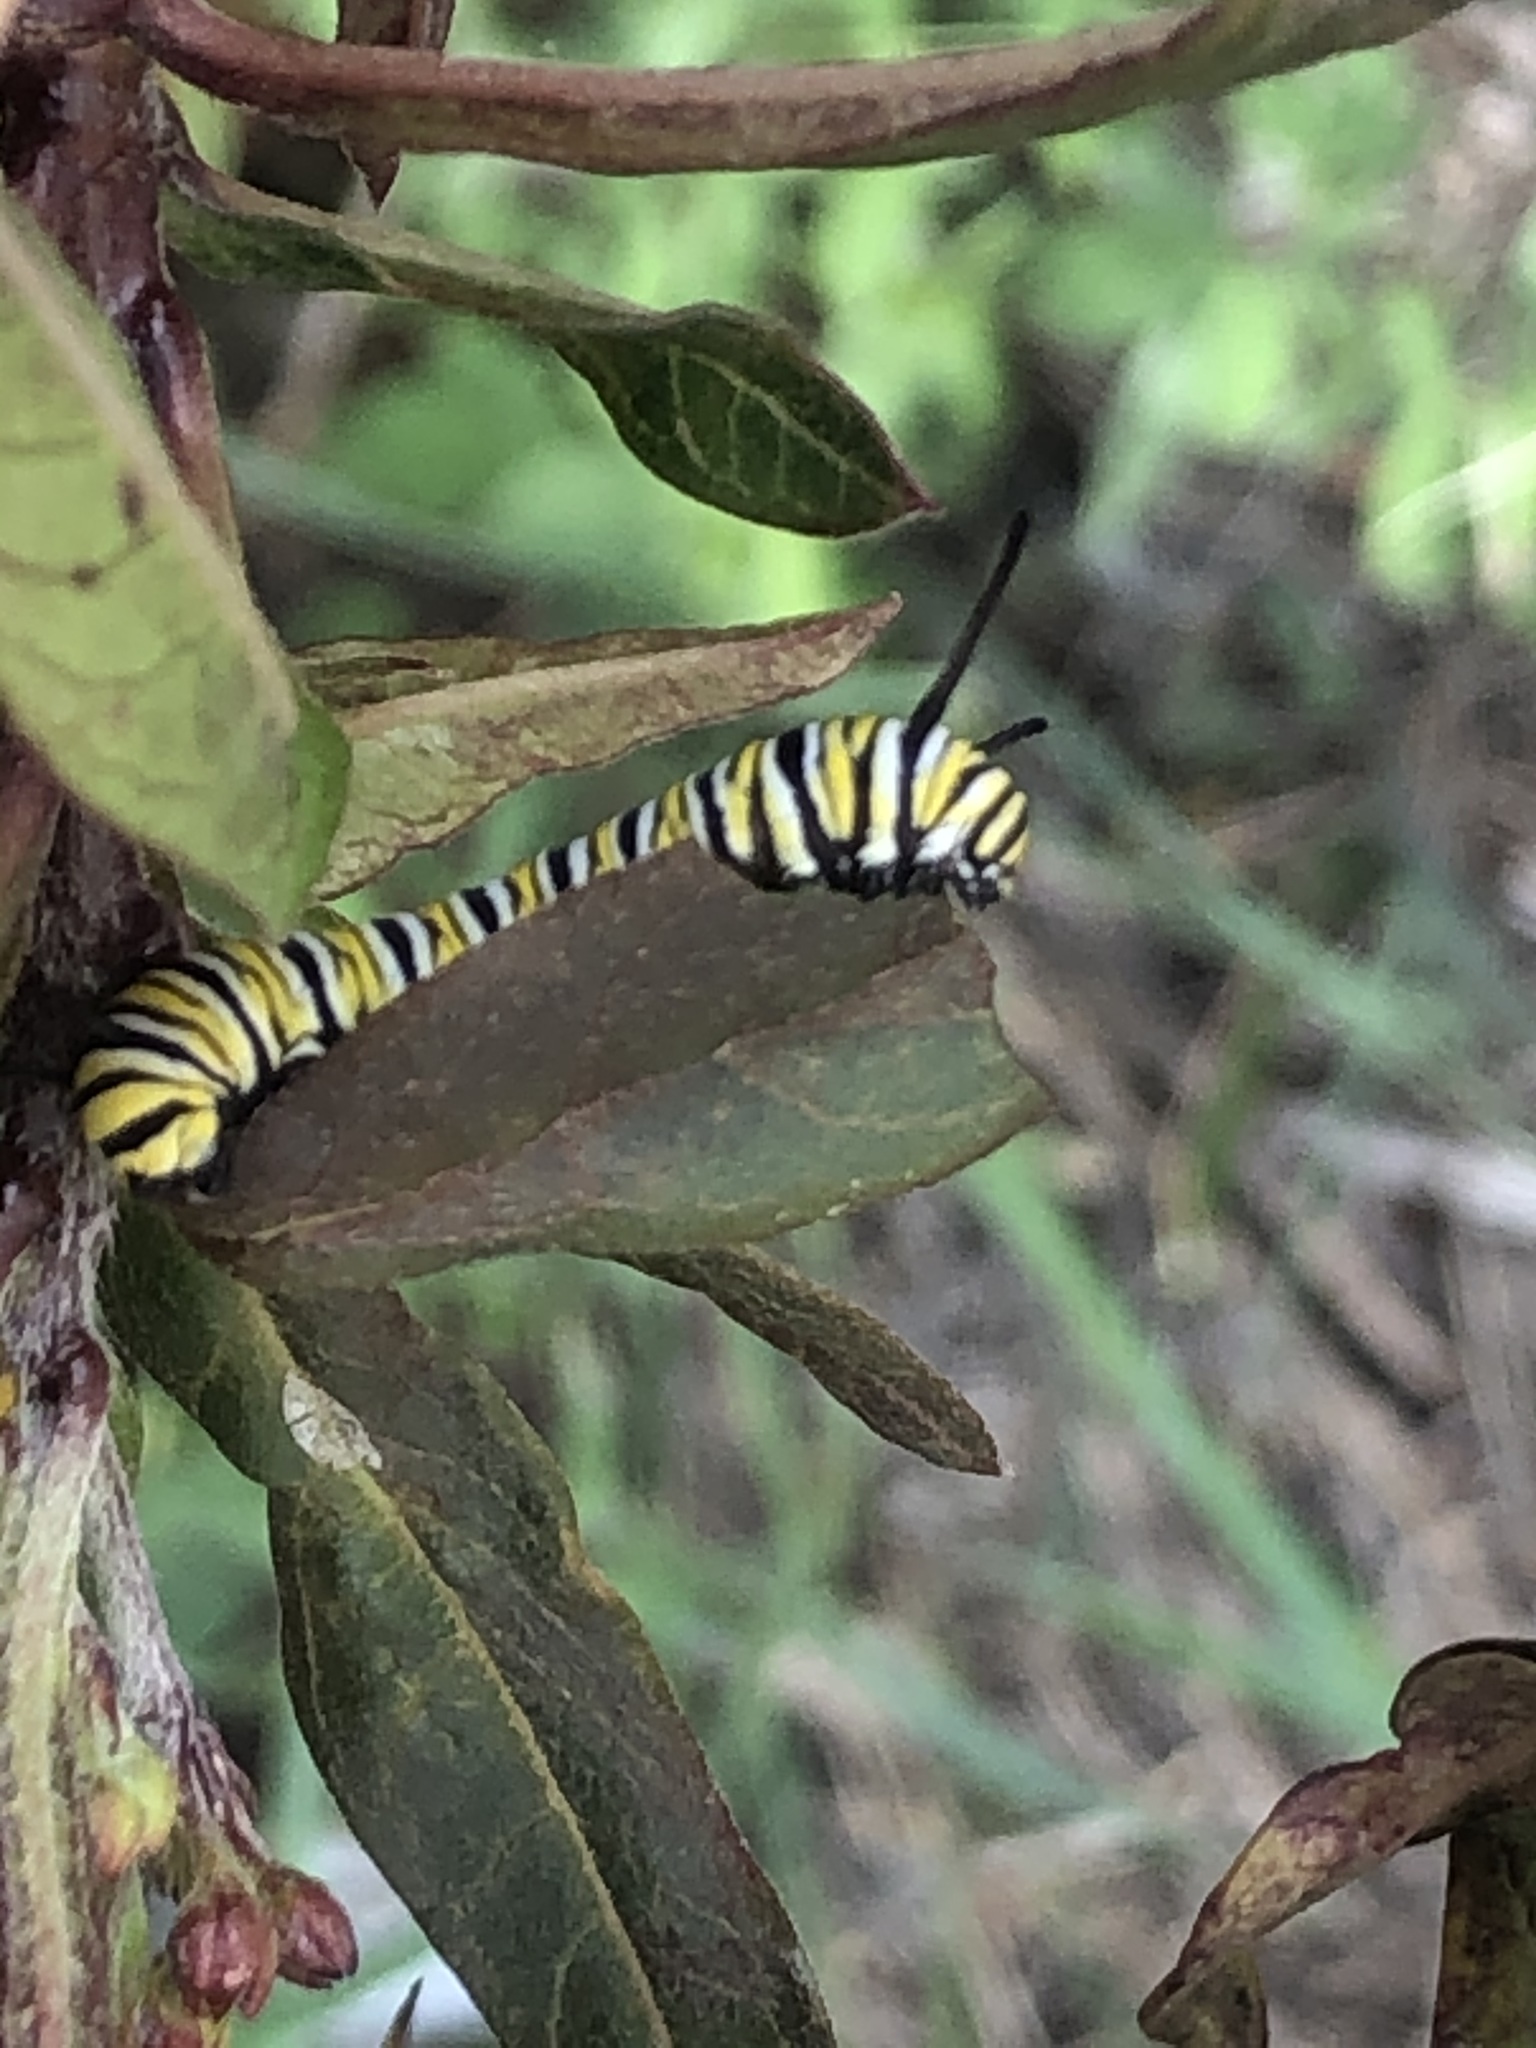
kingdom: Animalia
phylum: Arthropoda
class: Insecta
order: Lepidoptera
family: Nymphalidae
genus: Danaus
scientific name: Danaus plexippus
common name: Monarch
